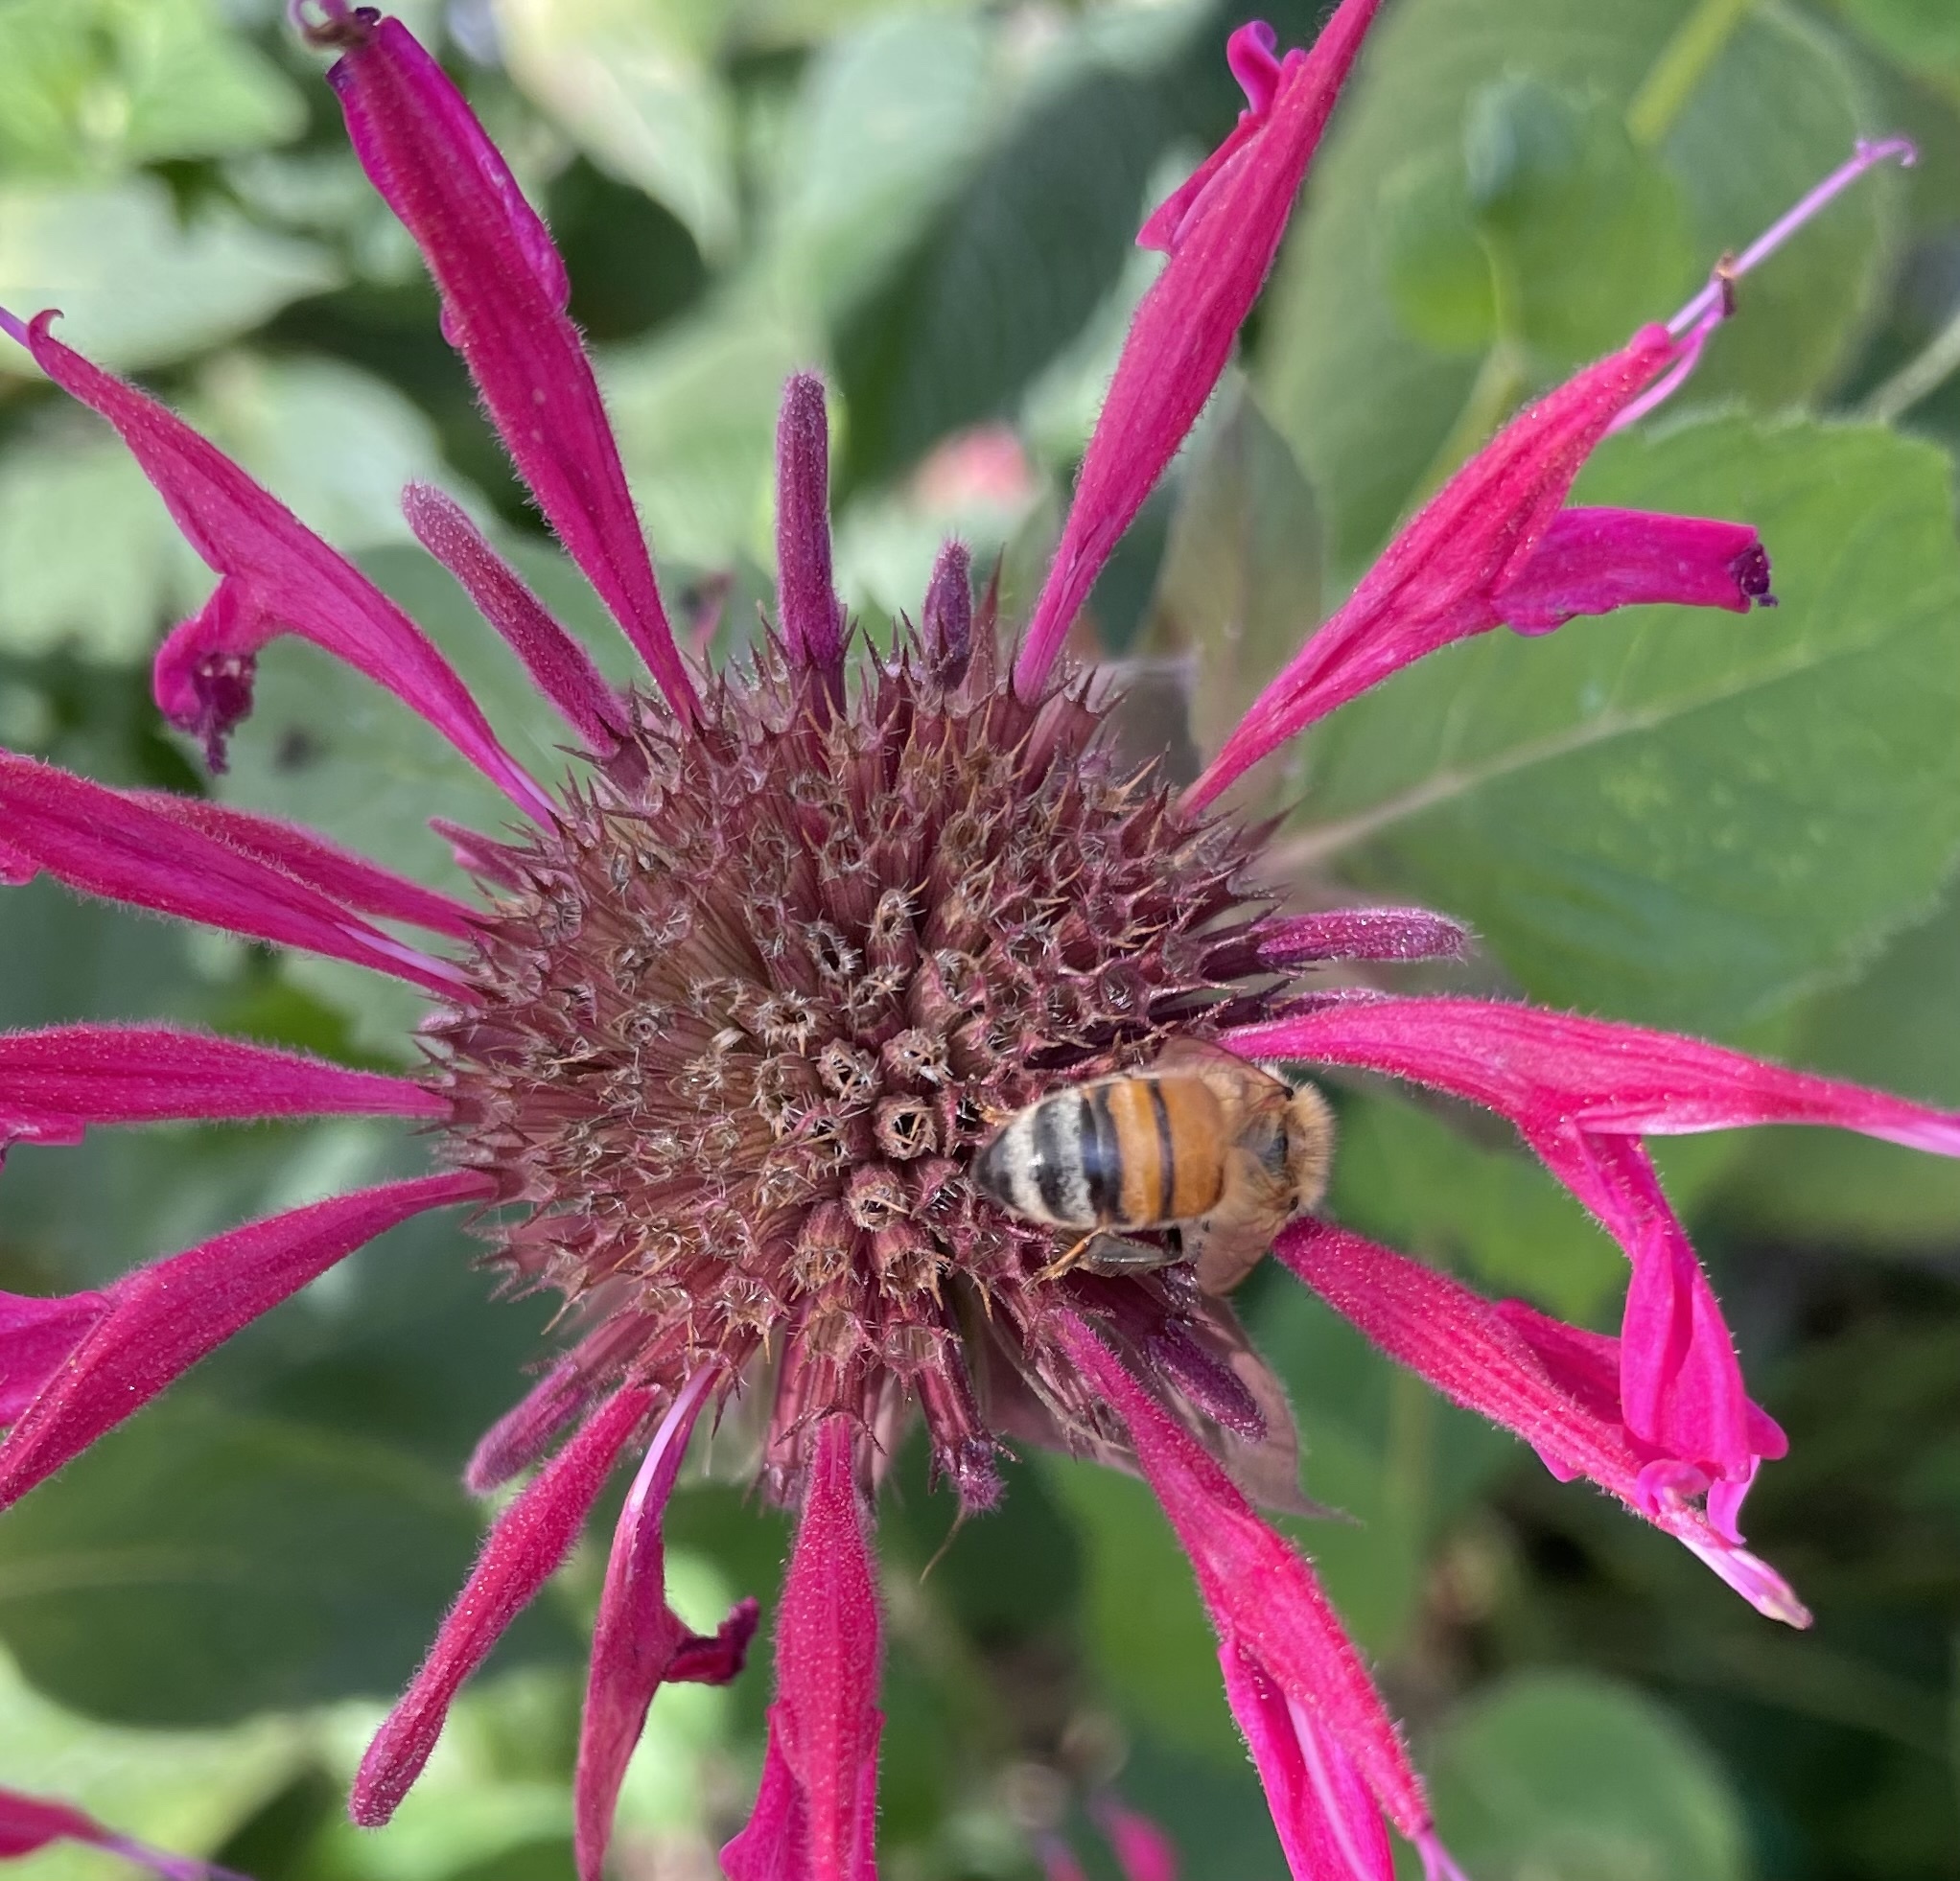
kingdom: Animalia
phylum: Arthropoda
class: Insecta
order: Hymenoptera
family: Apidae
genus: Apis
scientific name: Apis mellifera
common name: Honey bee
